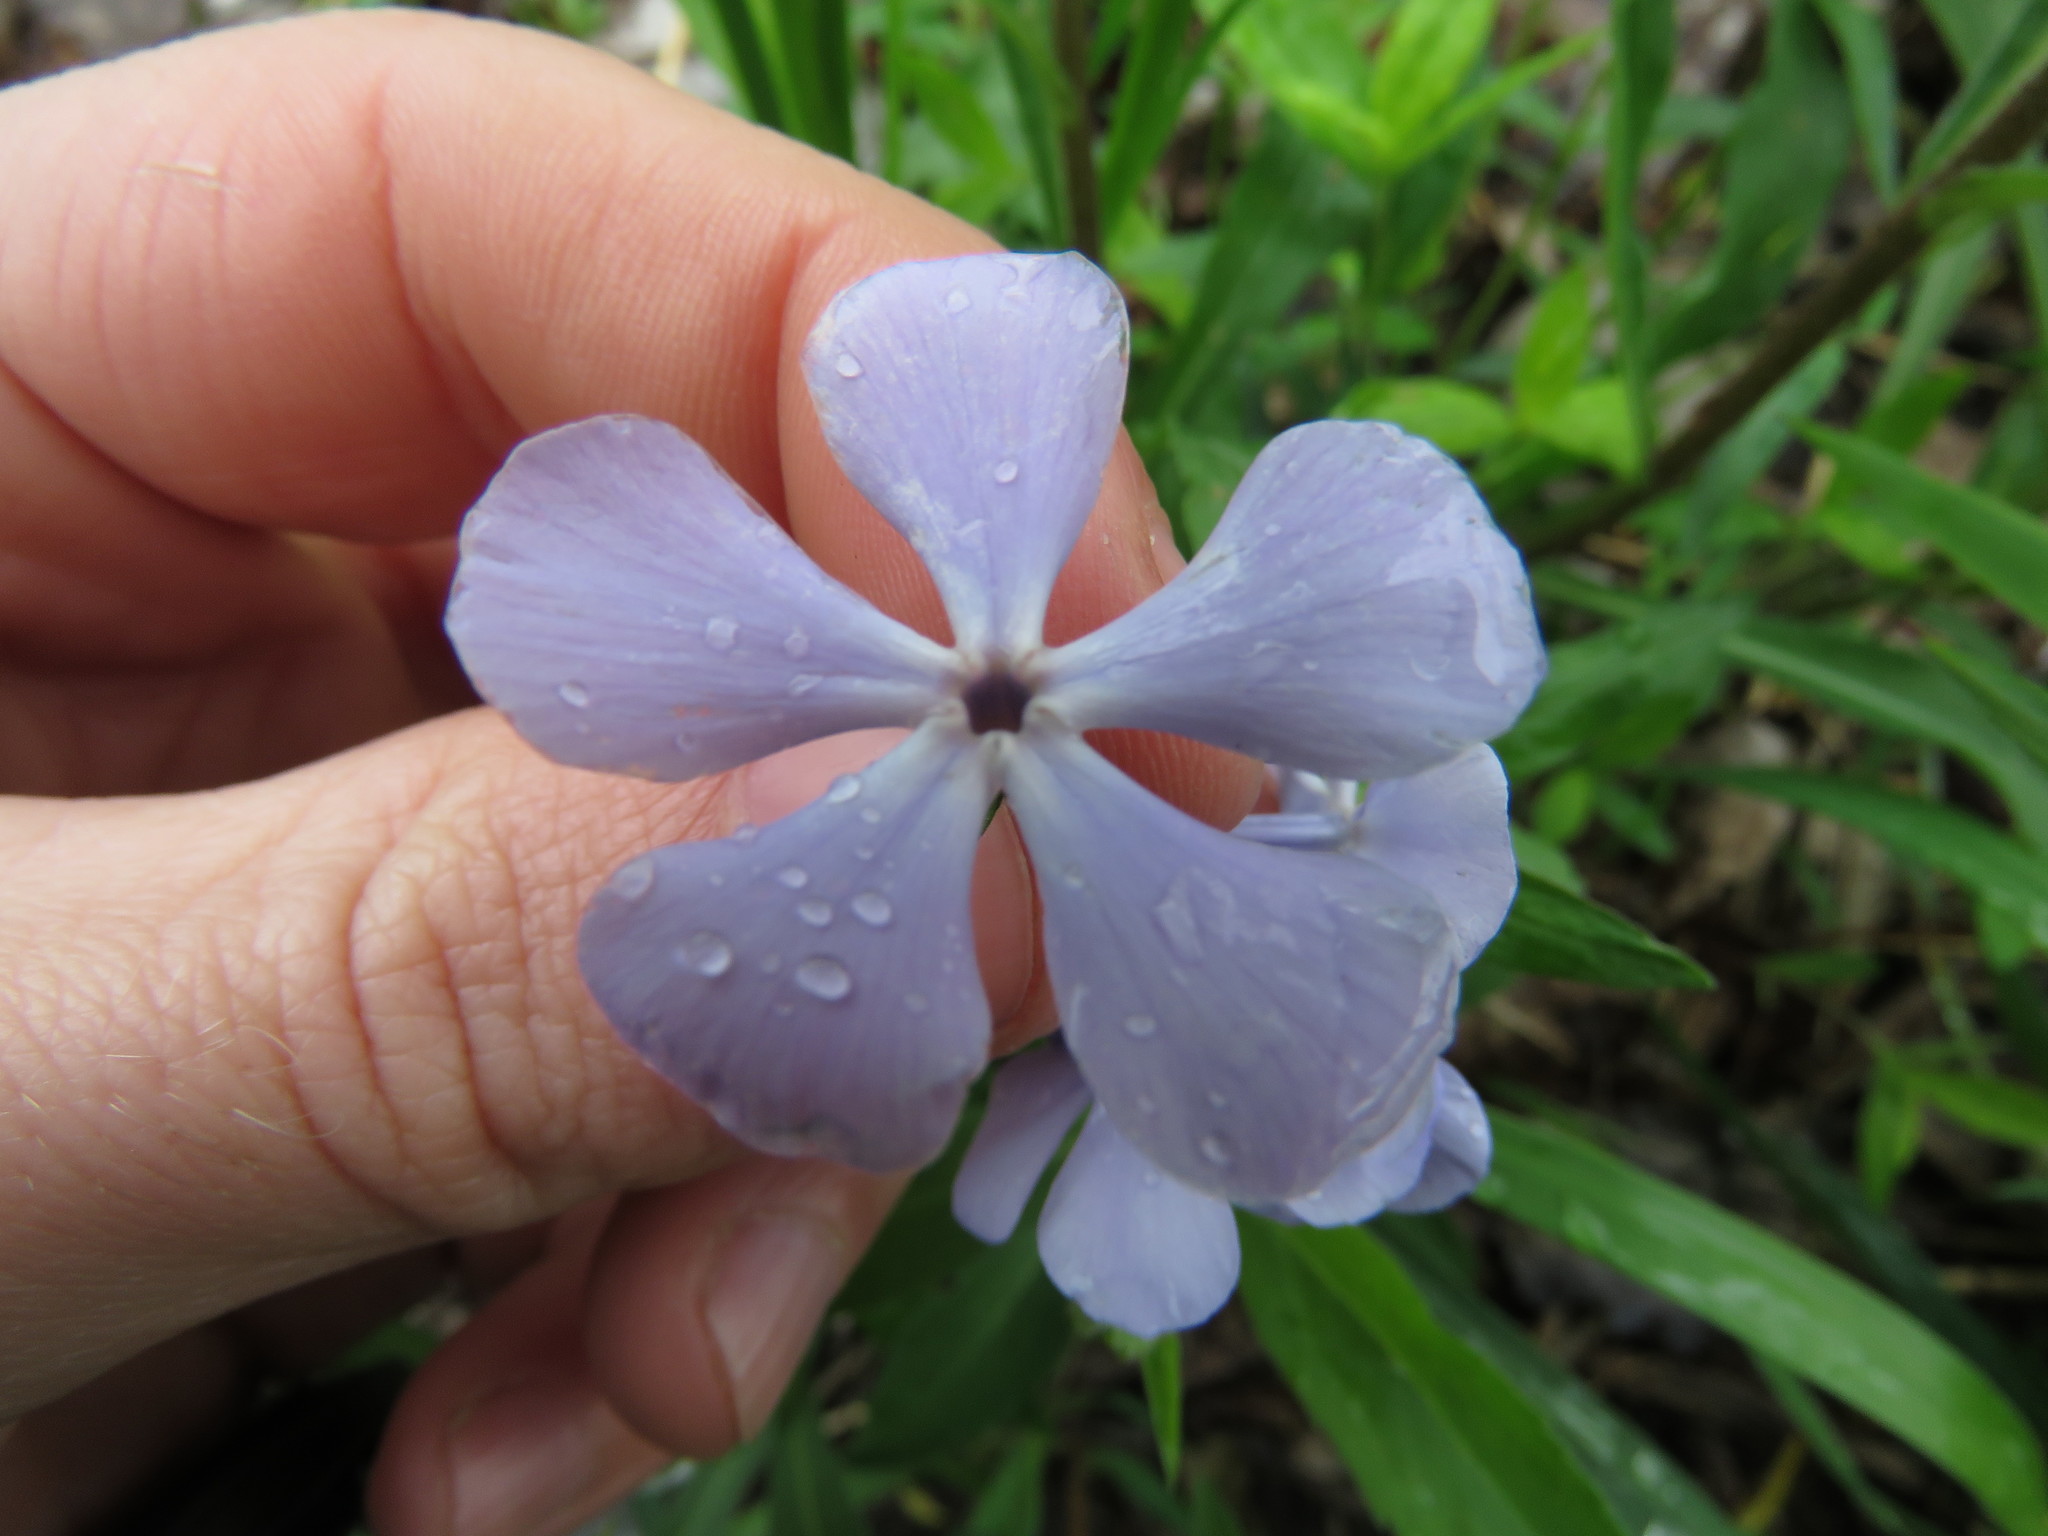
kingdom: Plantae
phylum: Tracheophyta
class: Magnoliopsida
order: Ericales
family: Polemoniaceae
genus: Phlox
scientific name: Phlox divaricata
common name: Blue phlox
